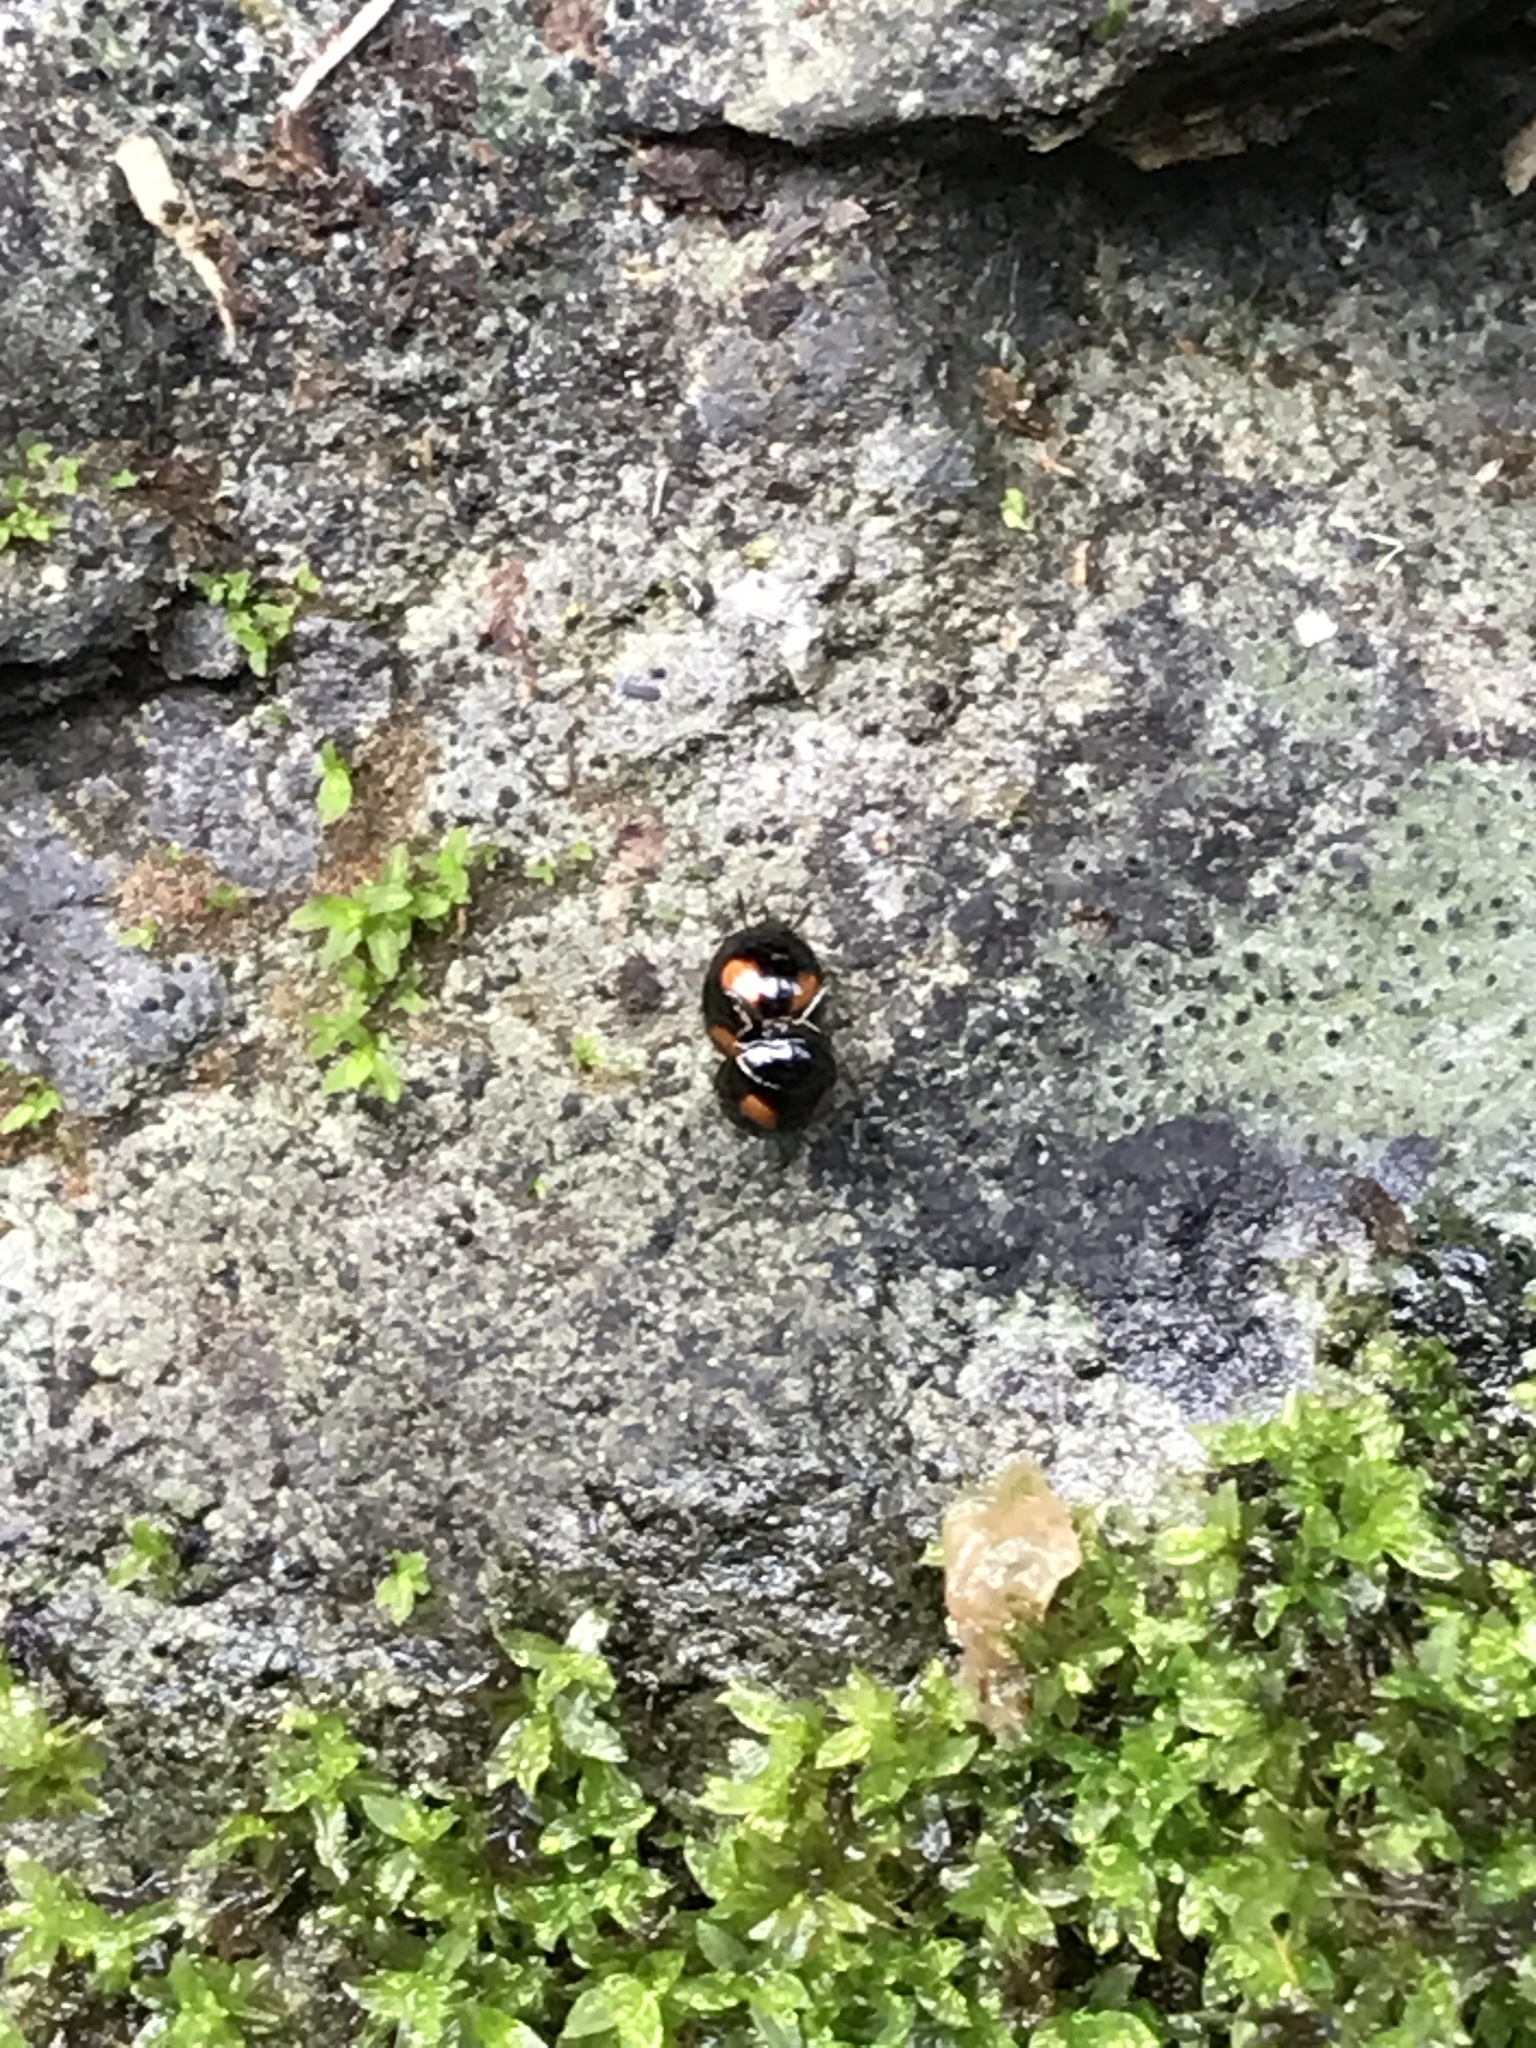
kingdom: Animalia
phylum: Arthropoda
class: Insecta
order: Coleoptera
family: Tenebrionidae
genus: Stethotrypes
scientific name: Stethotrypes
